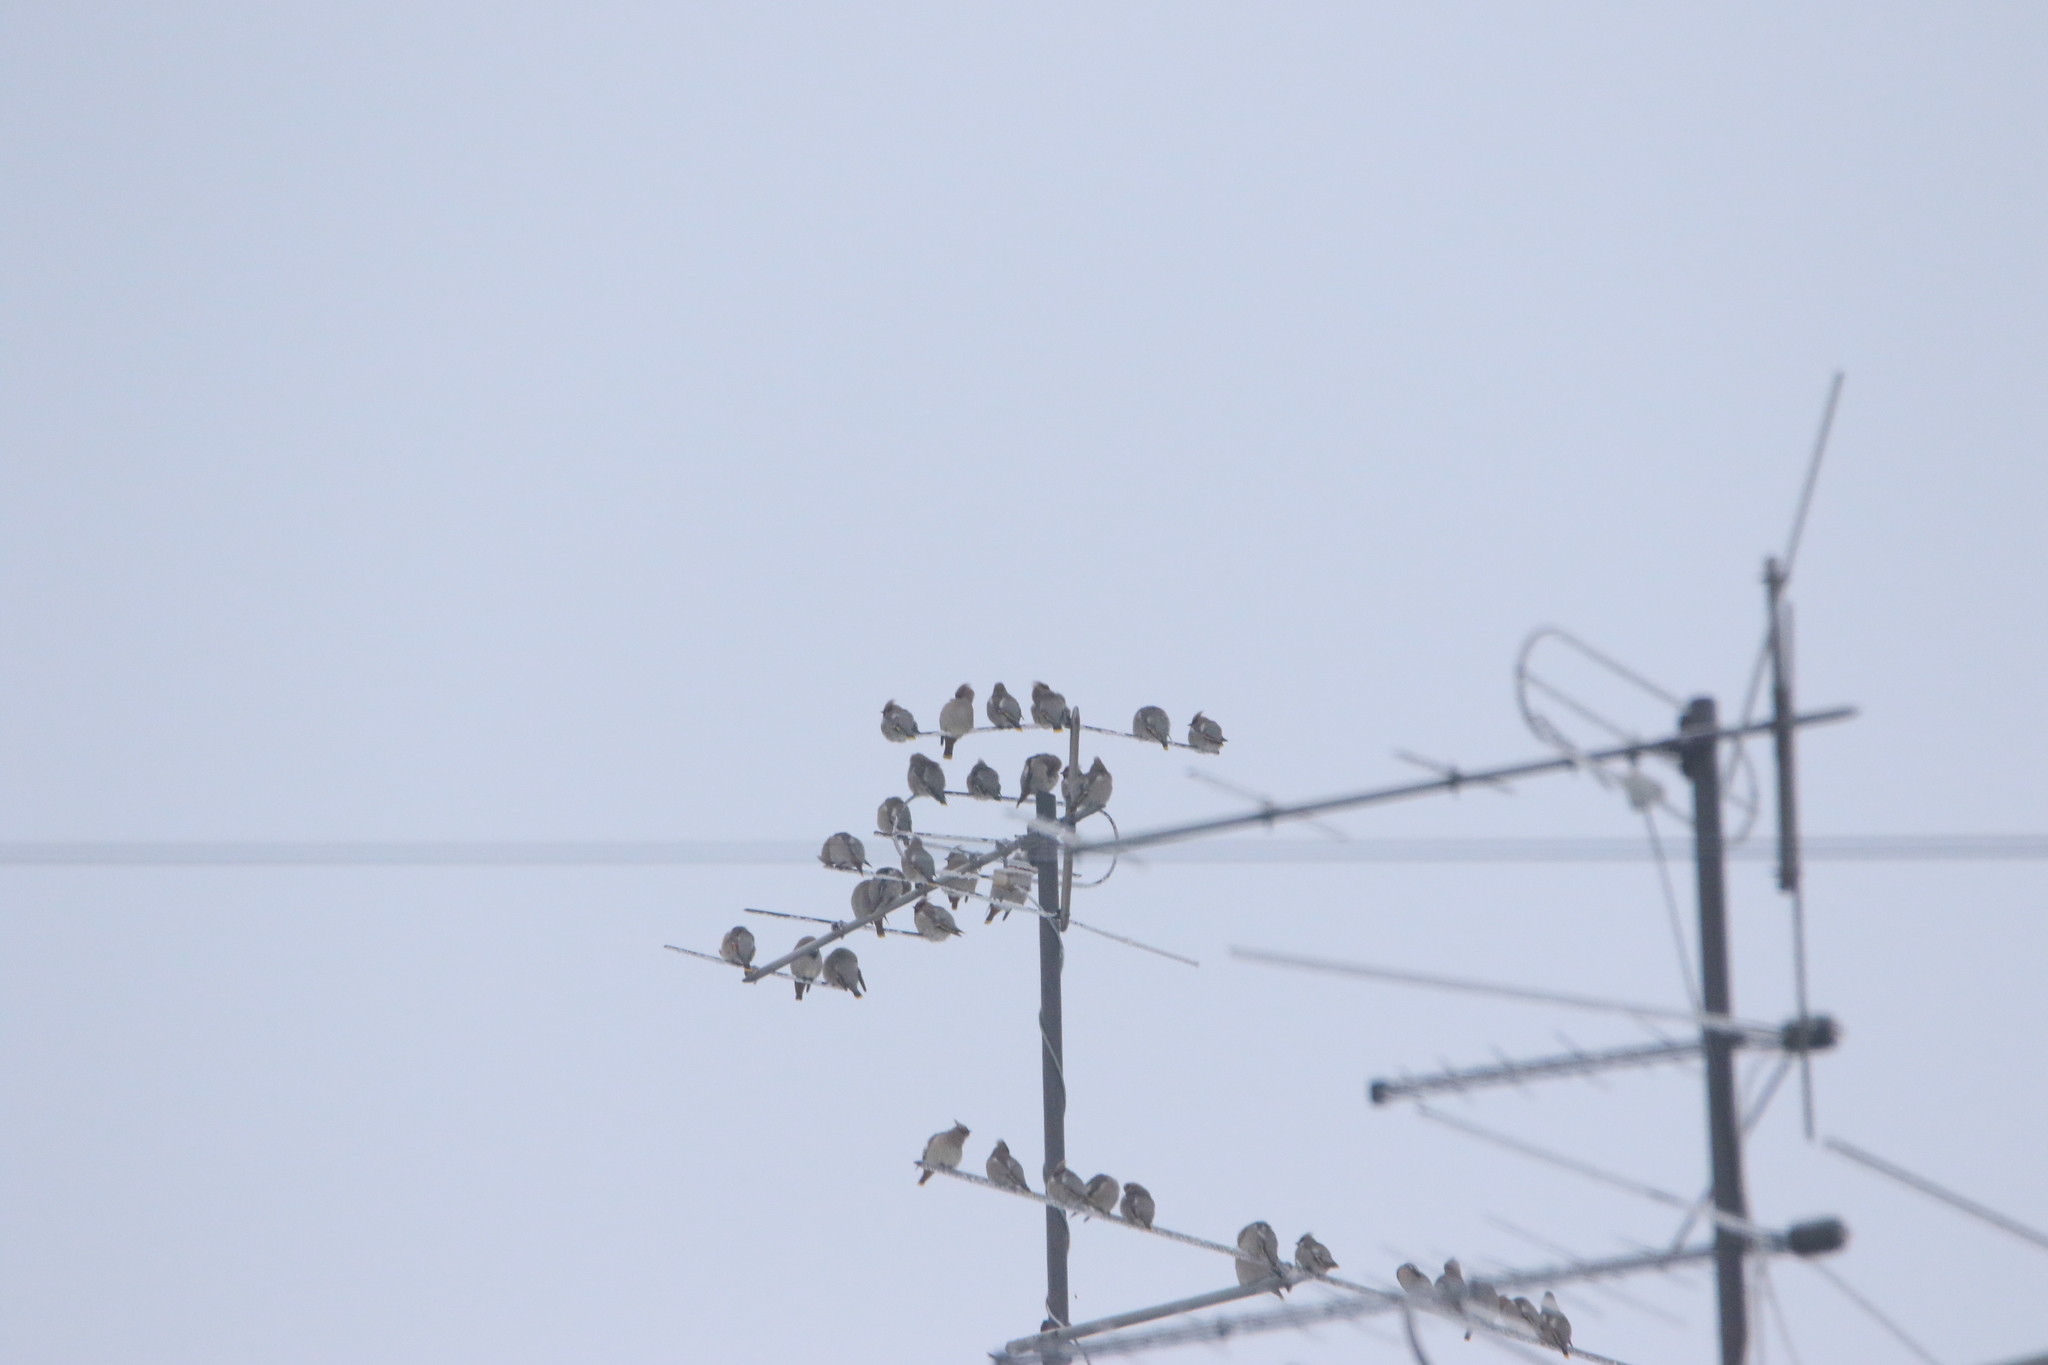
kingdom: Animalia
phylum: Chordata
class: Aves
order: Passeriformes
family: Bombycillidae
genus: Bombycilla
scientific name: Bombycilla garrulus
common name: Bohemian waxwing
